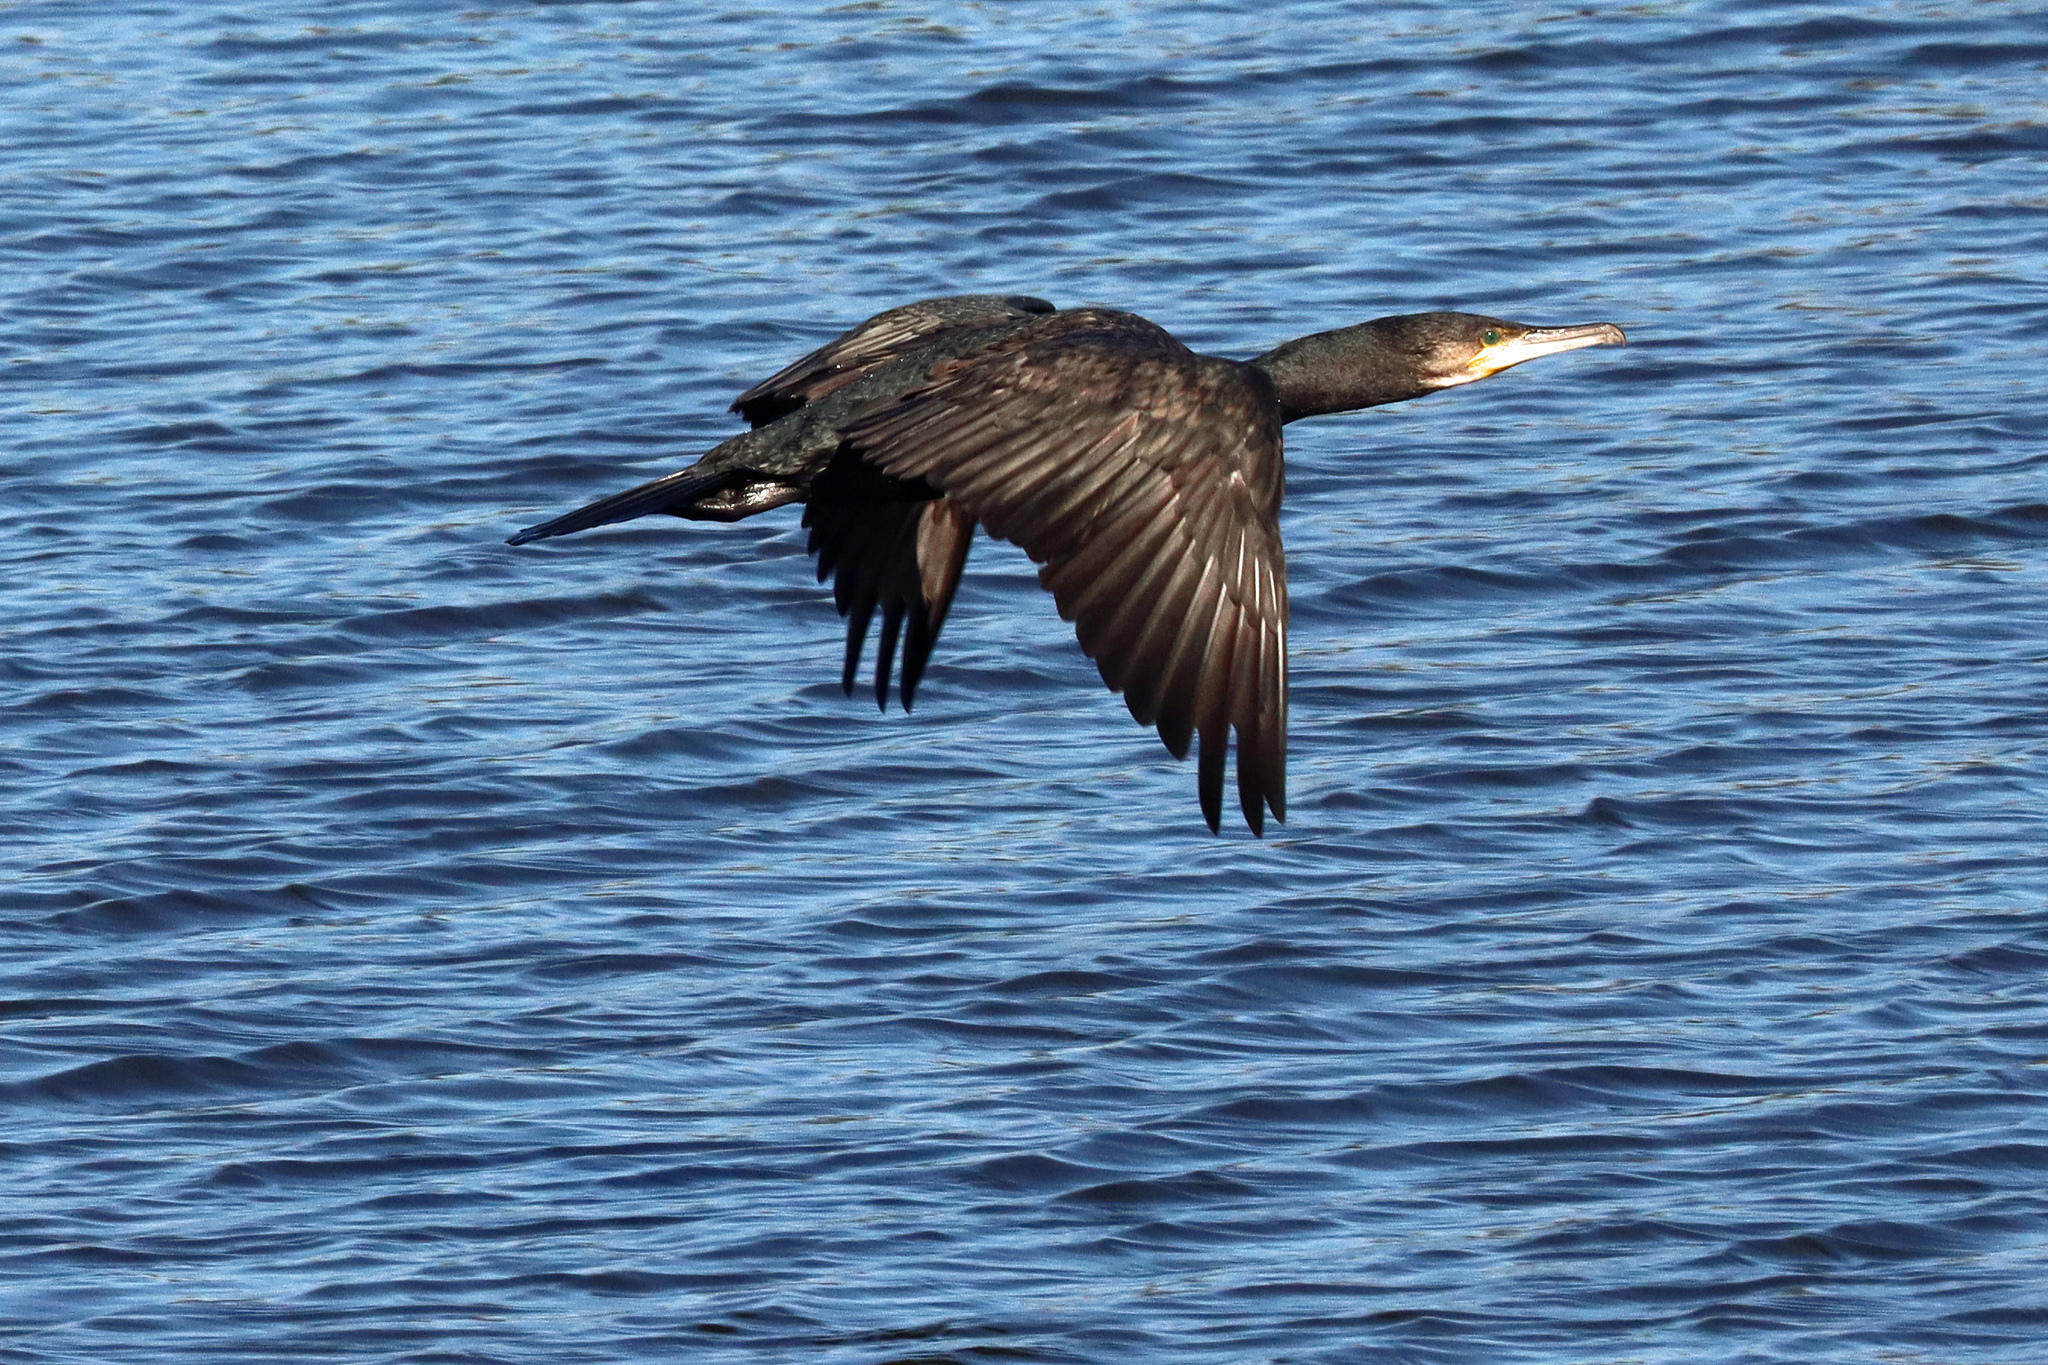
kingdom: Animalia
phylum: Chordata
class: Aves
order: Suliformes
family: Phalacrocoracidae
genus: Phalacrocorax
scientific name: Phalacrocorax carbo
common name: Great cormorant
